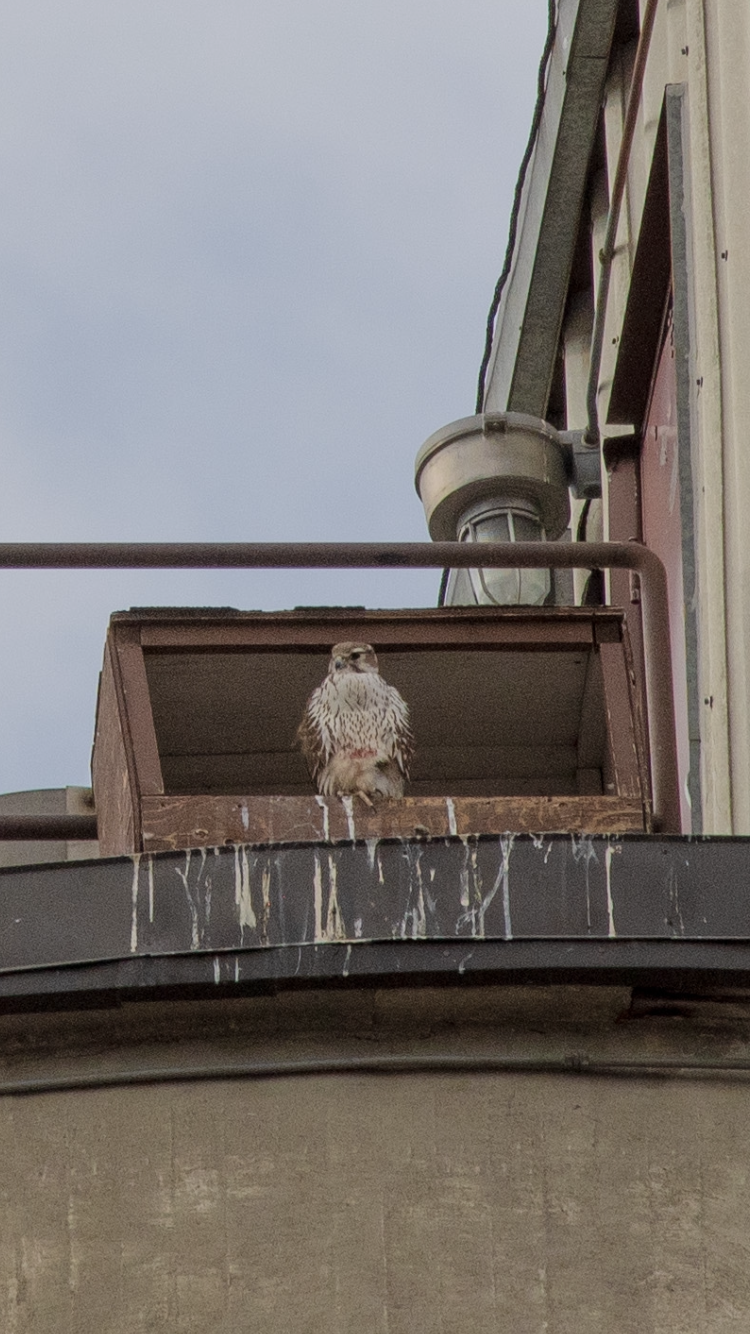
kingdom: Animalia
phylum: Chordata
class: Aves
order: Falconiformes
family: Falconidae
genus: Falco
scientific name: Falco mexicanus
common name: Prairie falcon
